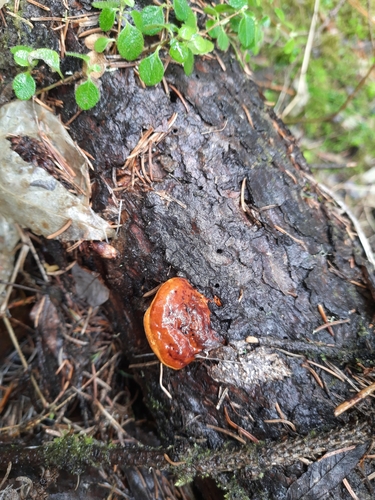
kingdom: Fungi
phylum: Basidiomycota
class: Agaricomycetes
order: Polyporales
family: Fomitopsidaceae
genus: Fomitopsis
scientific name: Fomitopsis pinicola
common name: Red-belted bracket
